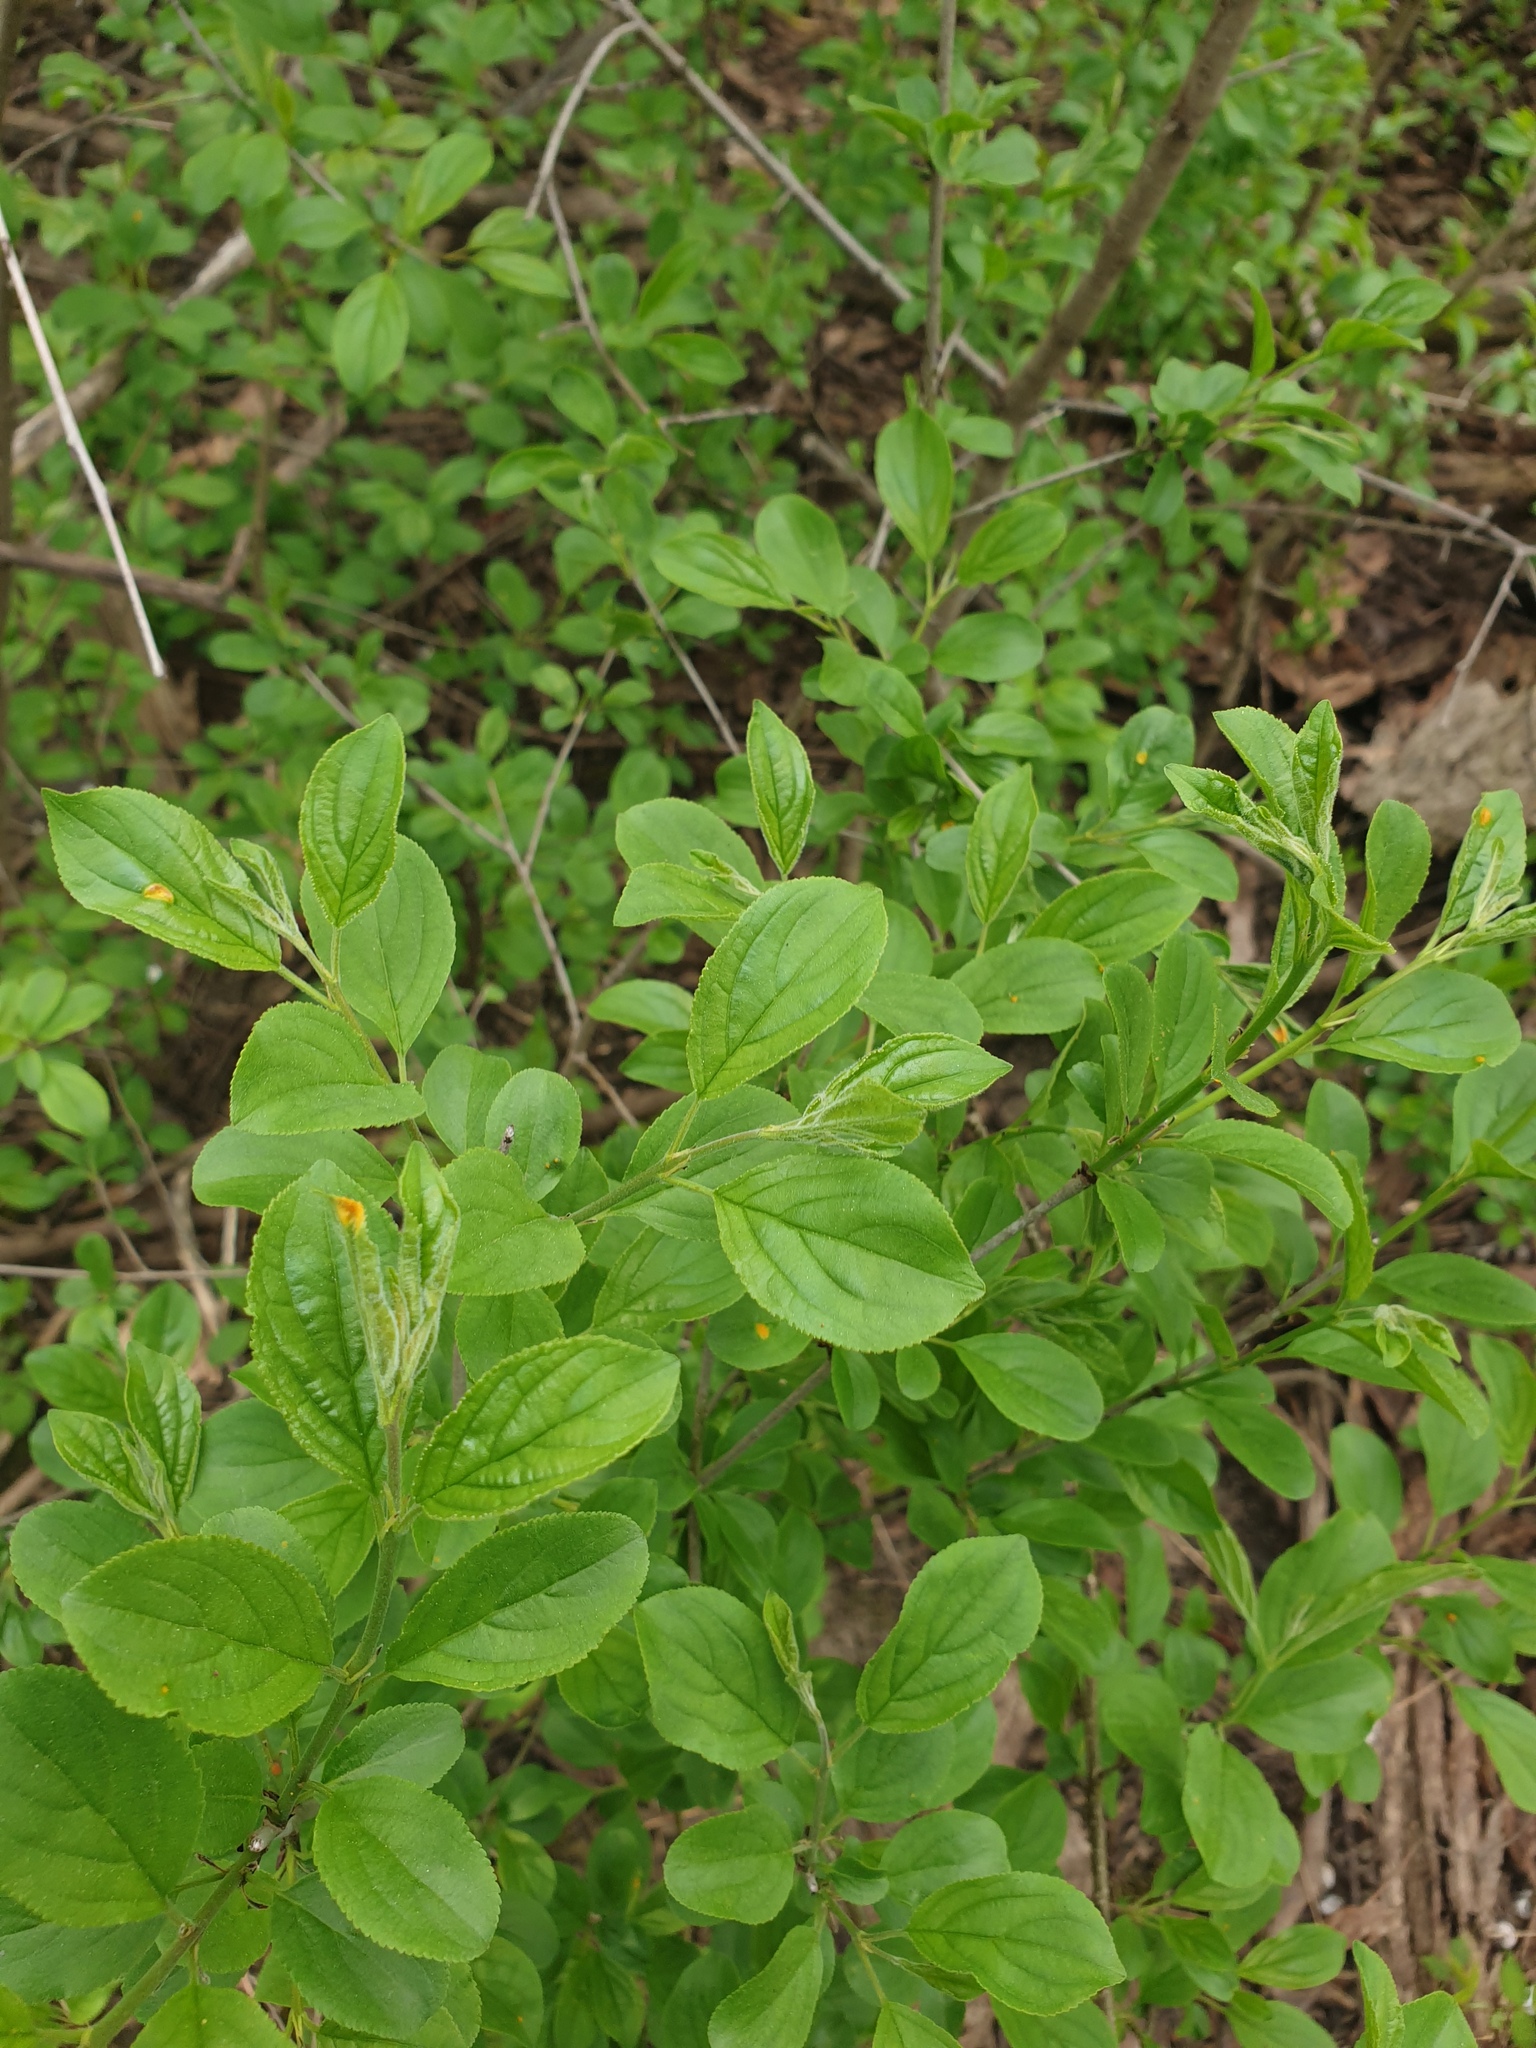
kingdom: Plantae
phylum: Tracheophyta
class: Magnoliopsida
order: Rosales
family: Rhamnaceae
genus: Rhamnus
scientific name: Rhamnus cathartica
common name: Common buckthorn
